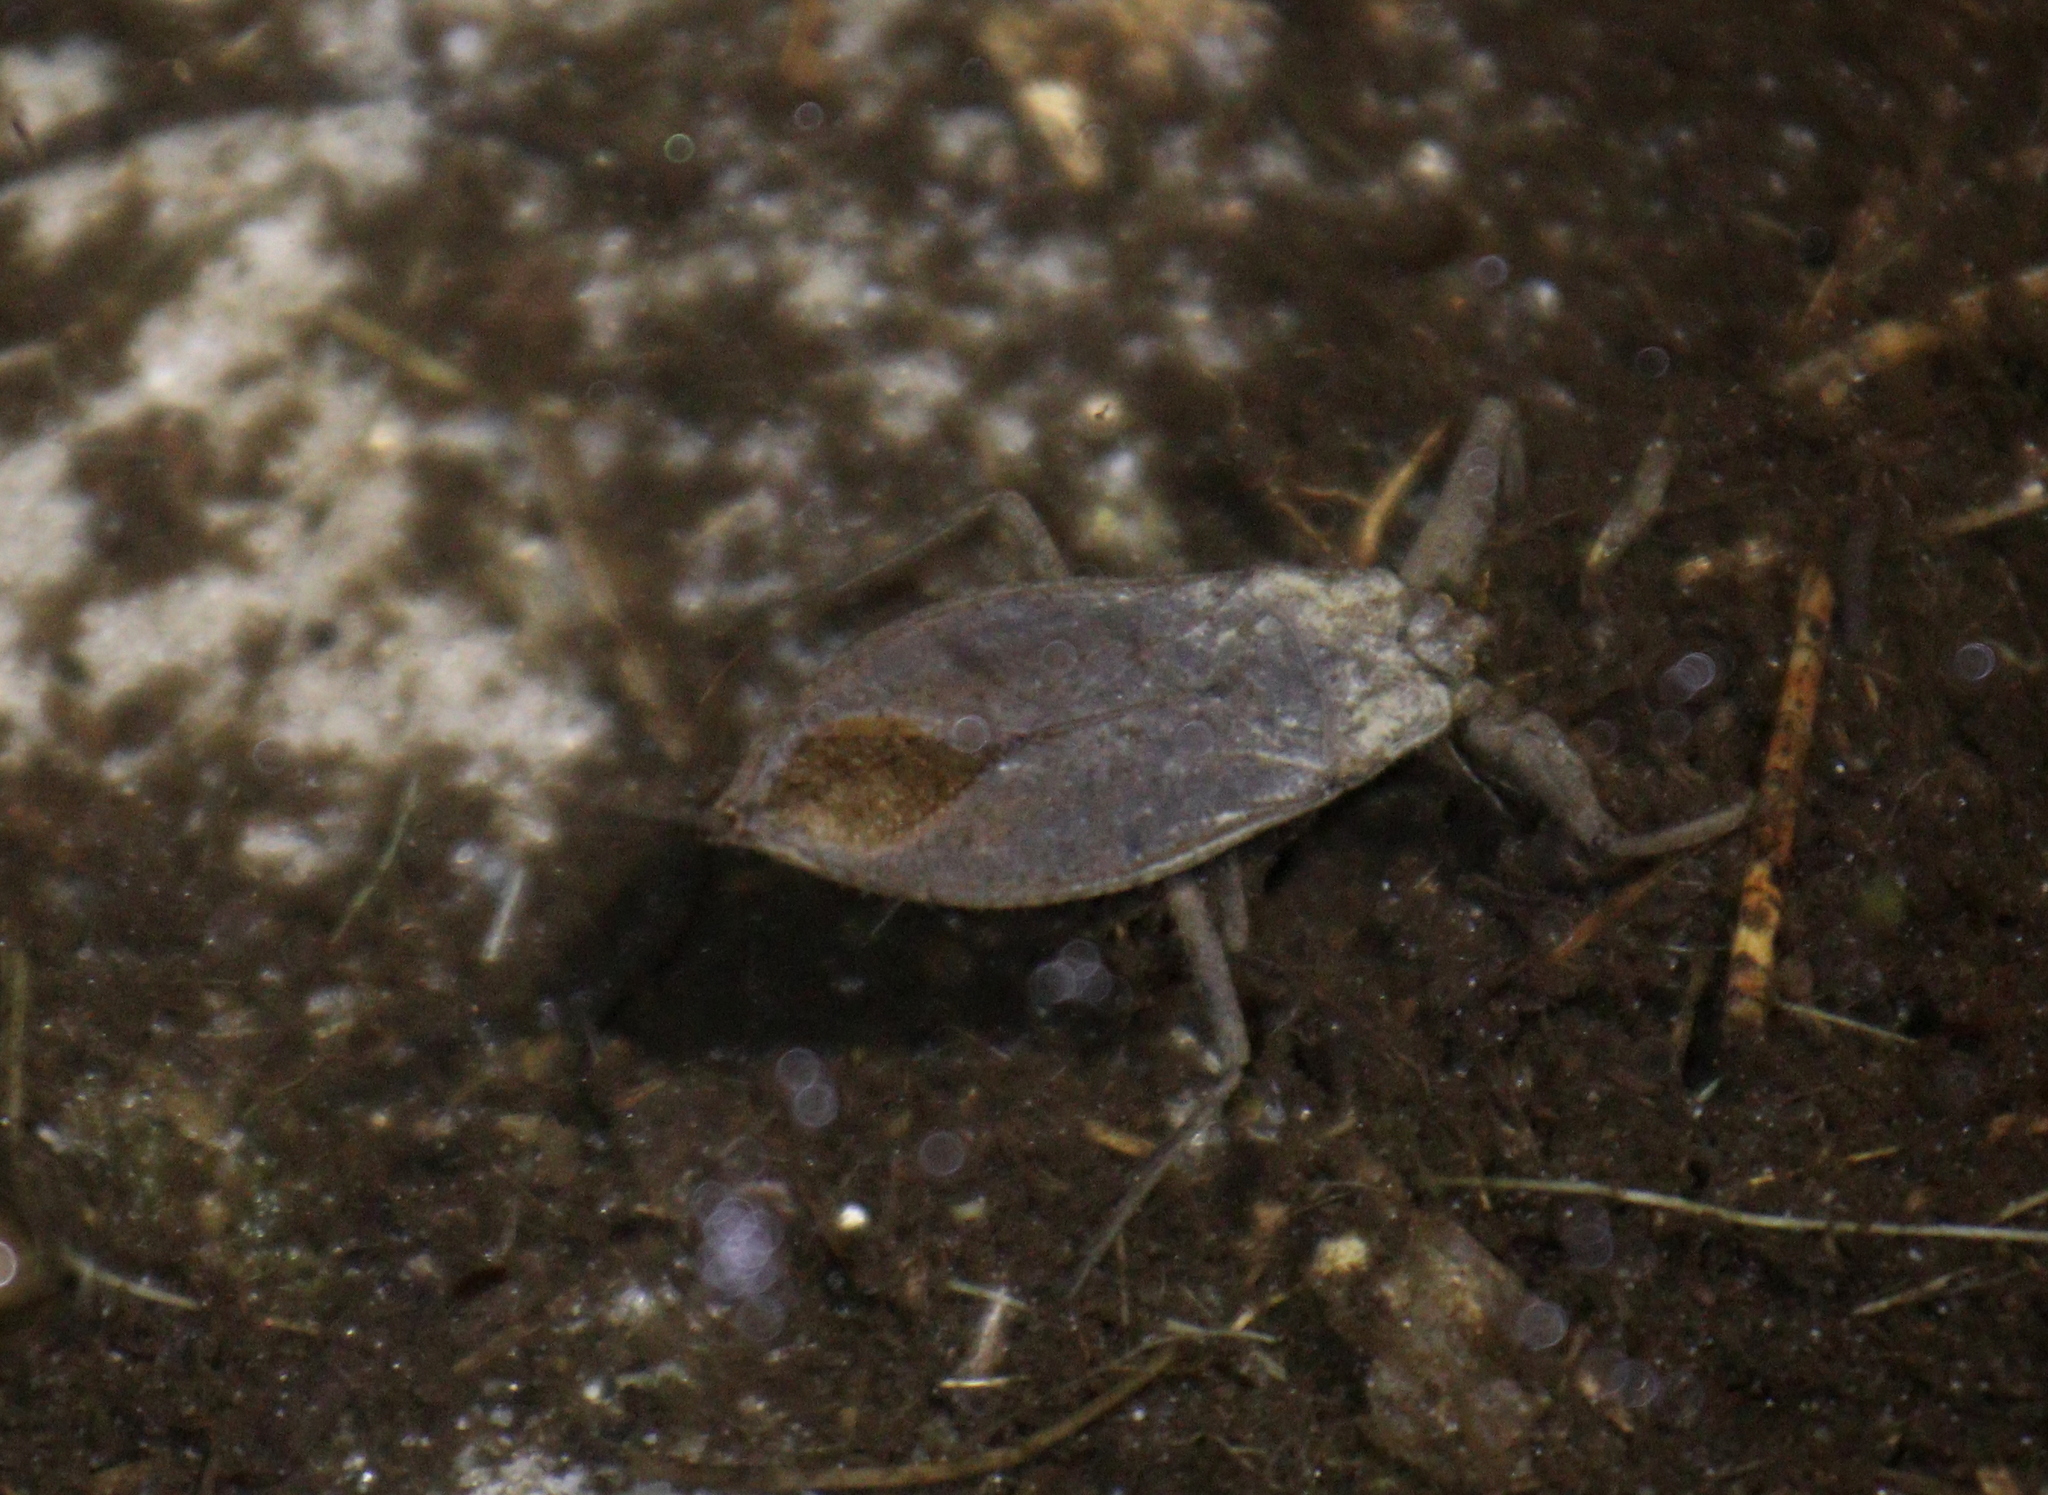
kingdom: Animalia
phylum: Arthropoda
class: Insecta
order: Hemiptera
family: Nepidae
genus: Nepa
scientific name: Nepa cinerea
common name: Water scorpion
